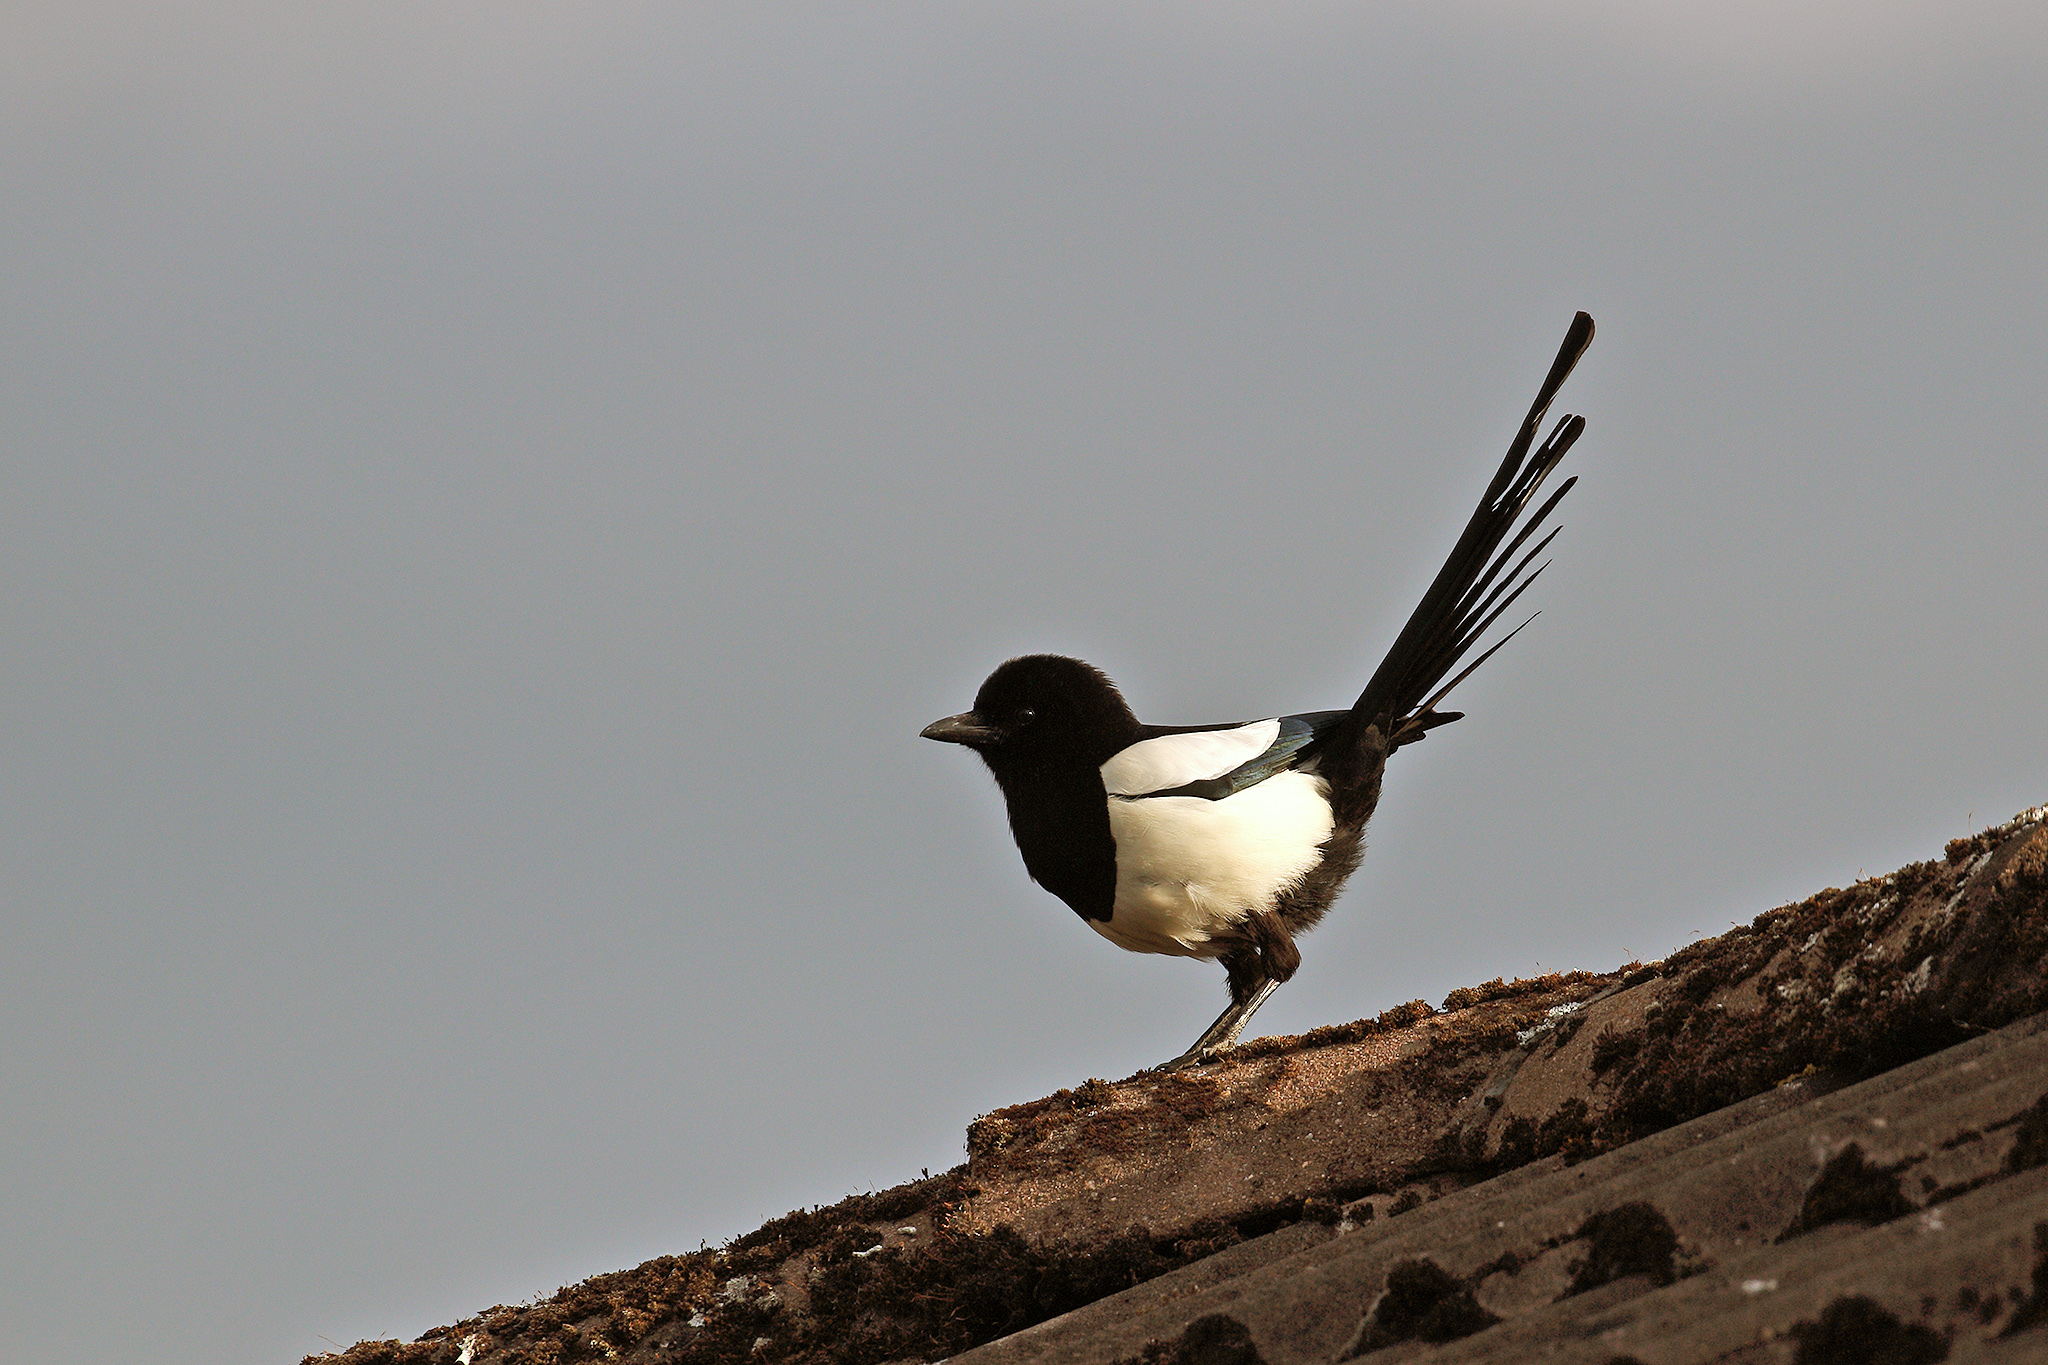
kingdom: Animalia
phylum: Chordata
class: Aves
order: Passeriformes
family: Corvidae
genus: Pica
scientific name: Pica pica
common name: Eurasian magpie
